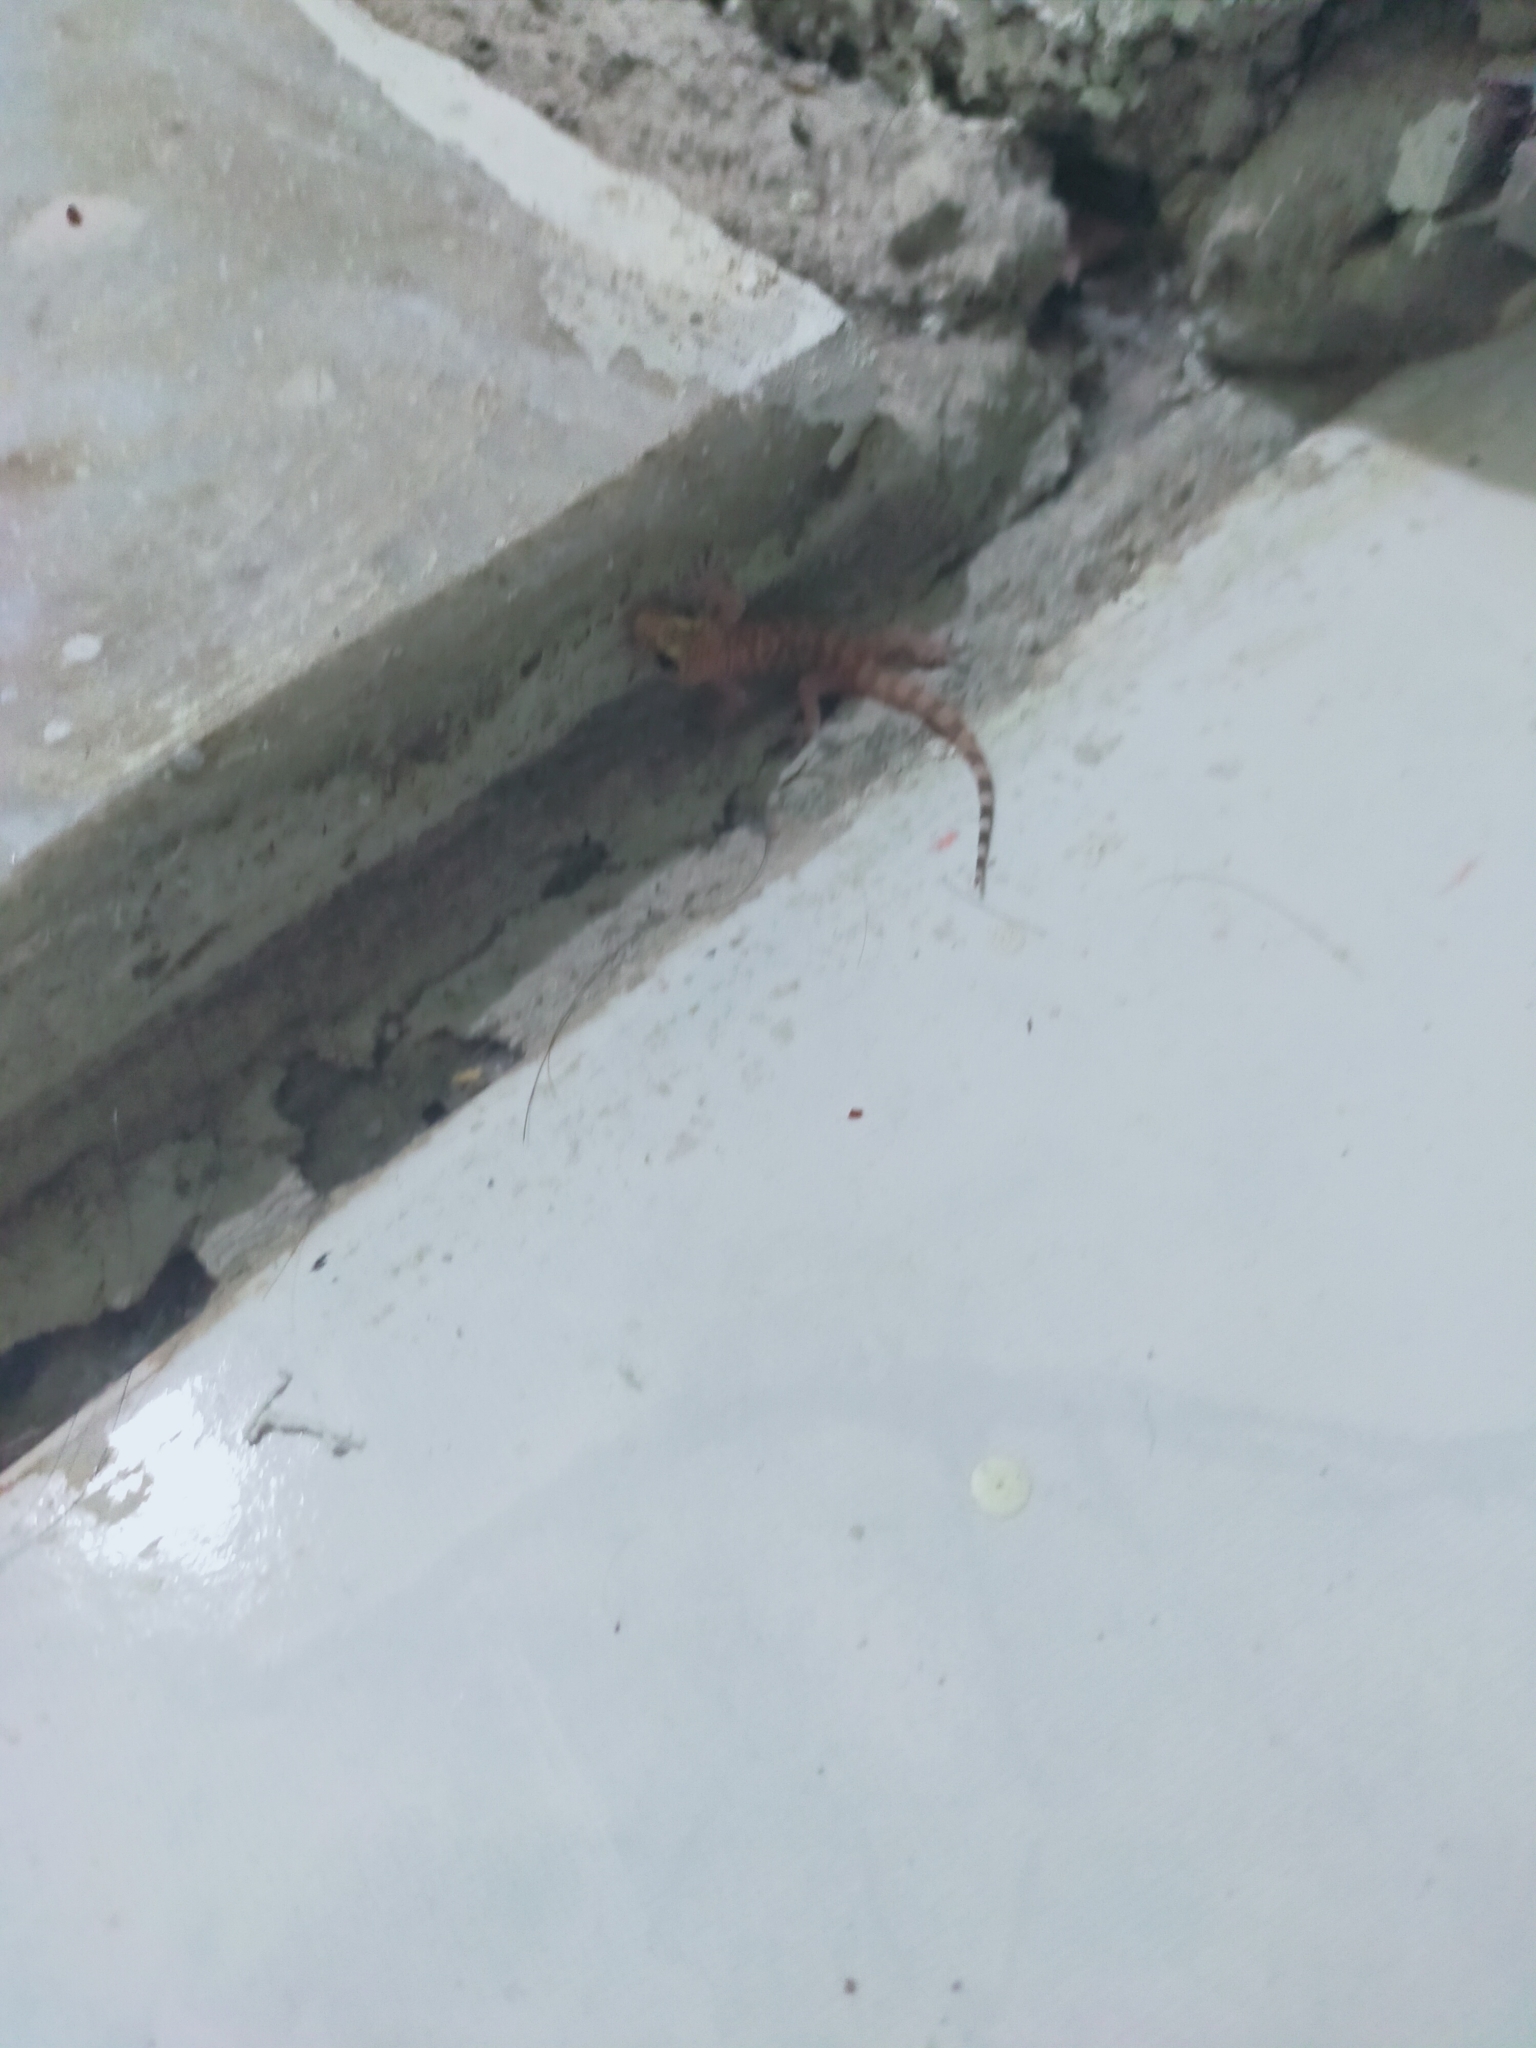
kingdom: Animalia
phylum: Chordata
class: Squamata
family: Gekkonidae
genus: Hemidactylus
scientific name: Hemidactylus turcicus
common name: Turkish gecko
